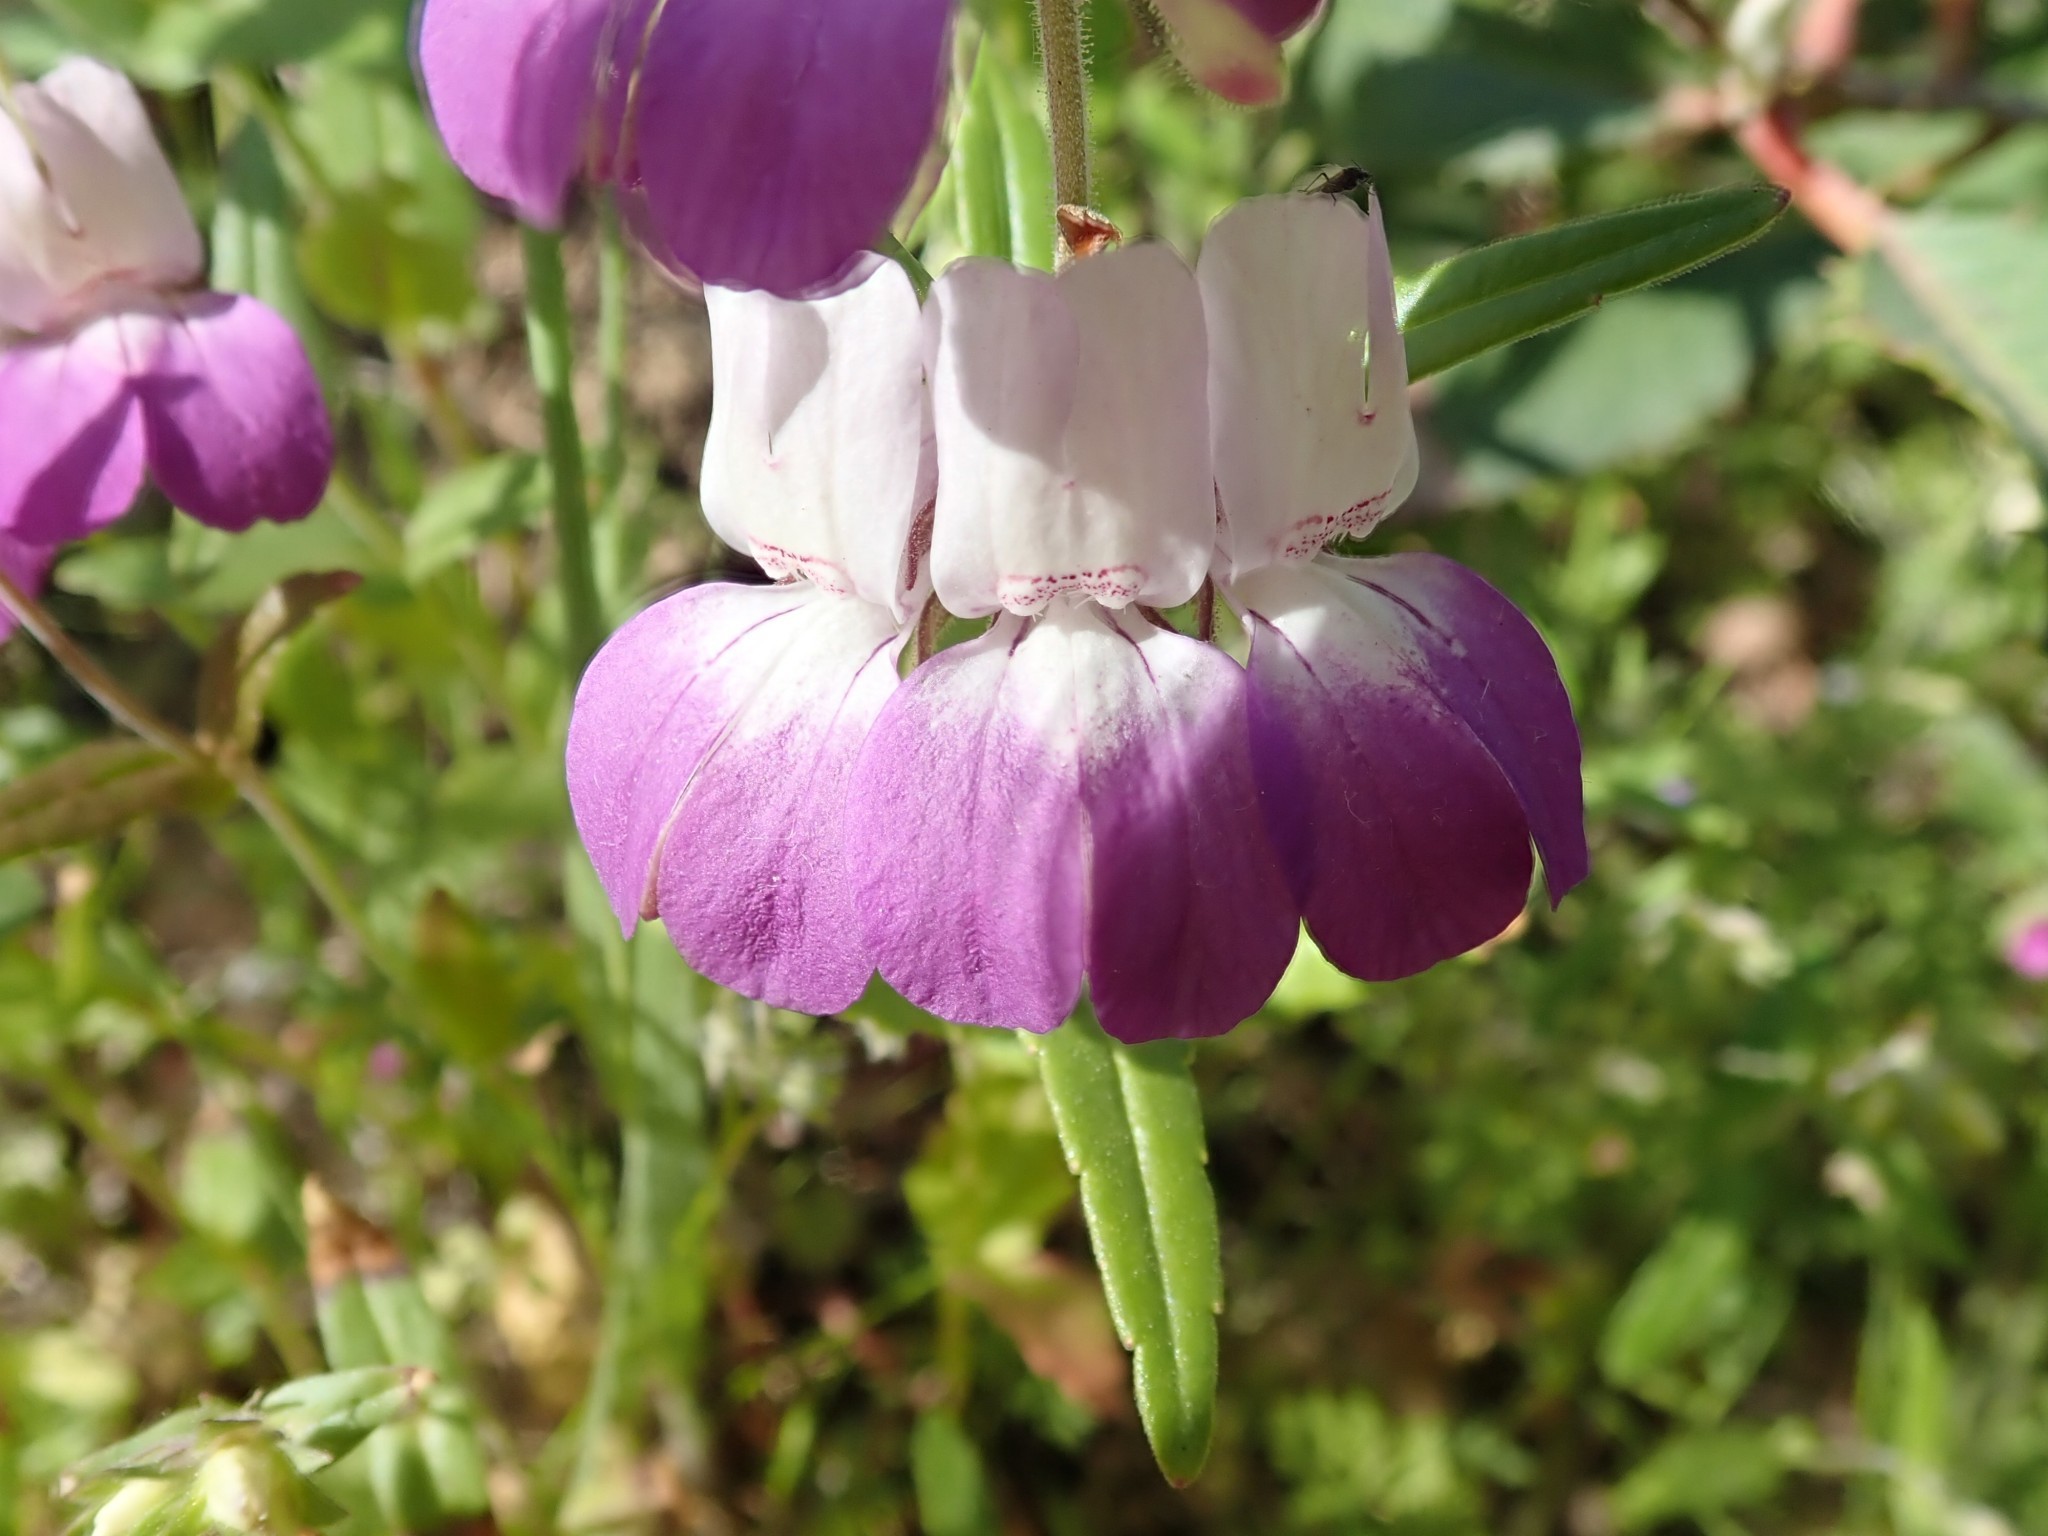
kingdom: Plantae
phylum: Tracheophyta
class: Magnoliopsida
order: Lamiales
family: Plantaginaceae
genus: Collinsia
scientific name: Collinsia heterophylla
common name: Chinese-houses
